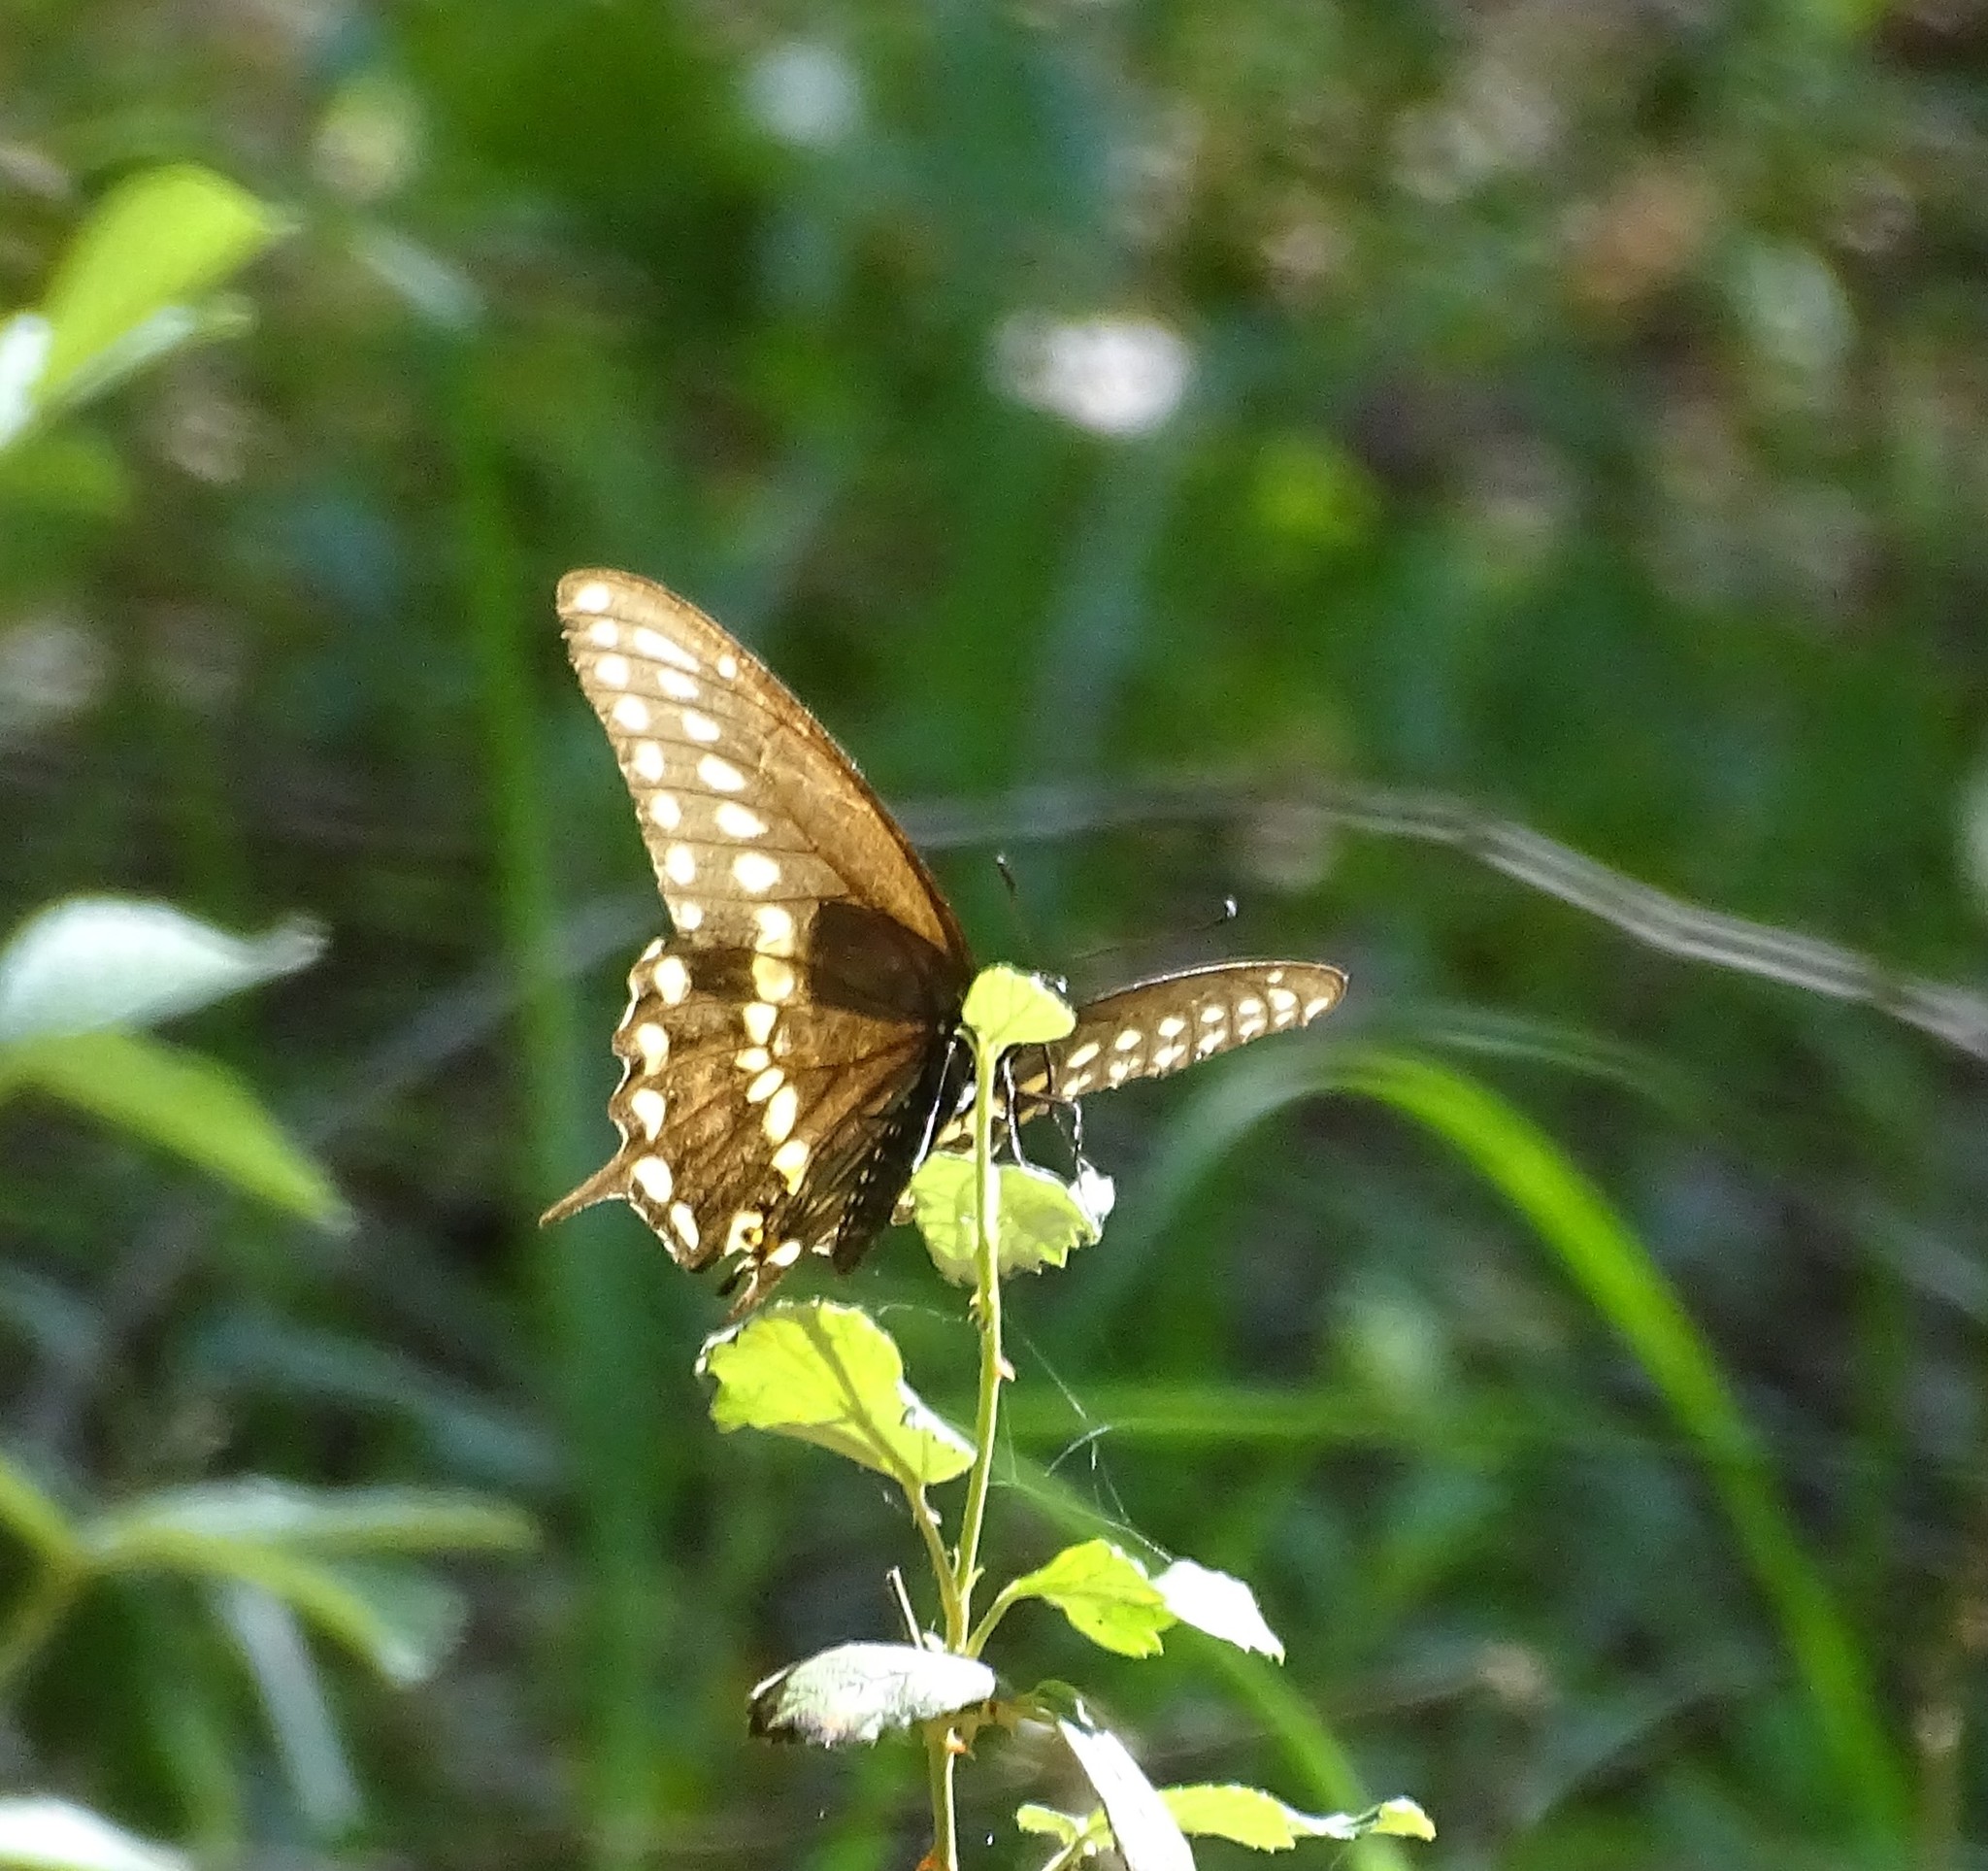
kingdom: Animalia
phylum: Arthropoda
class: Insecta
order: Lepidoptera
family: Papilionidae
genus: Papilio
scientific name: Papilio polyxenes
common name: Black swallowtail
